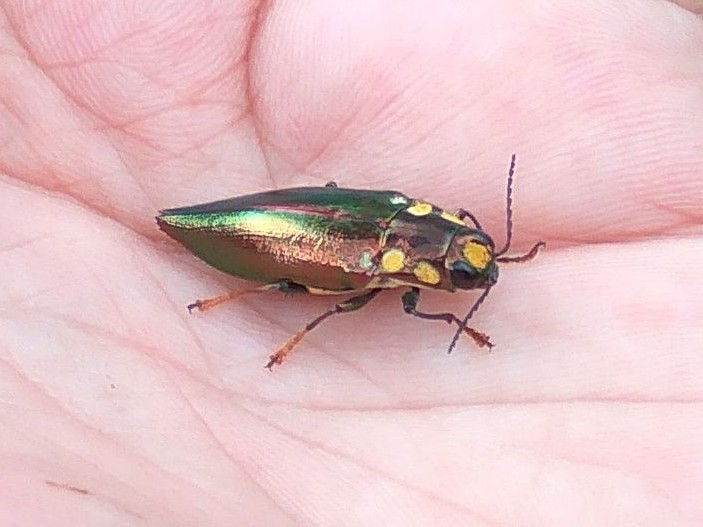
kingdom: Animalia
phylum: Arthropoda
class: Insecta
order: Coleoptera
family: Buprestidae
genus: Metataenia
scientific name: Metataenia erythrocephala
